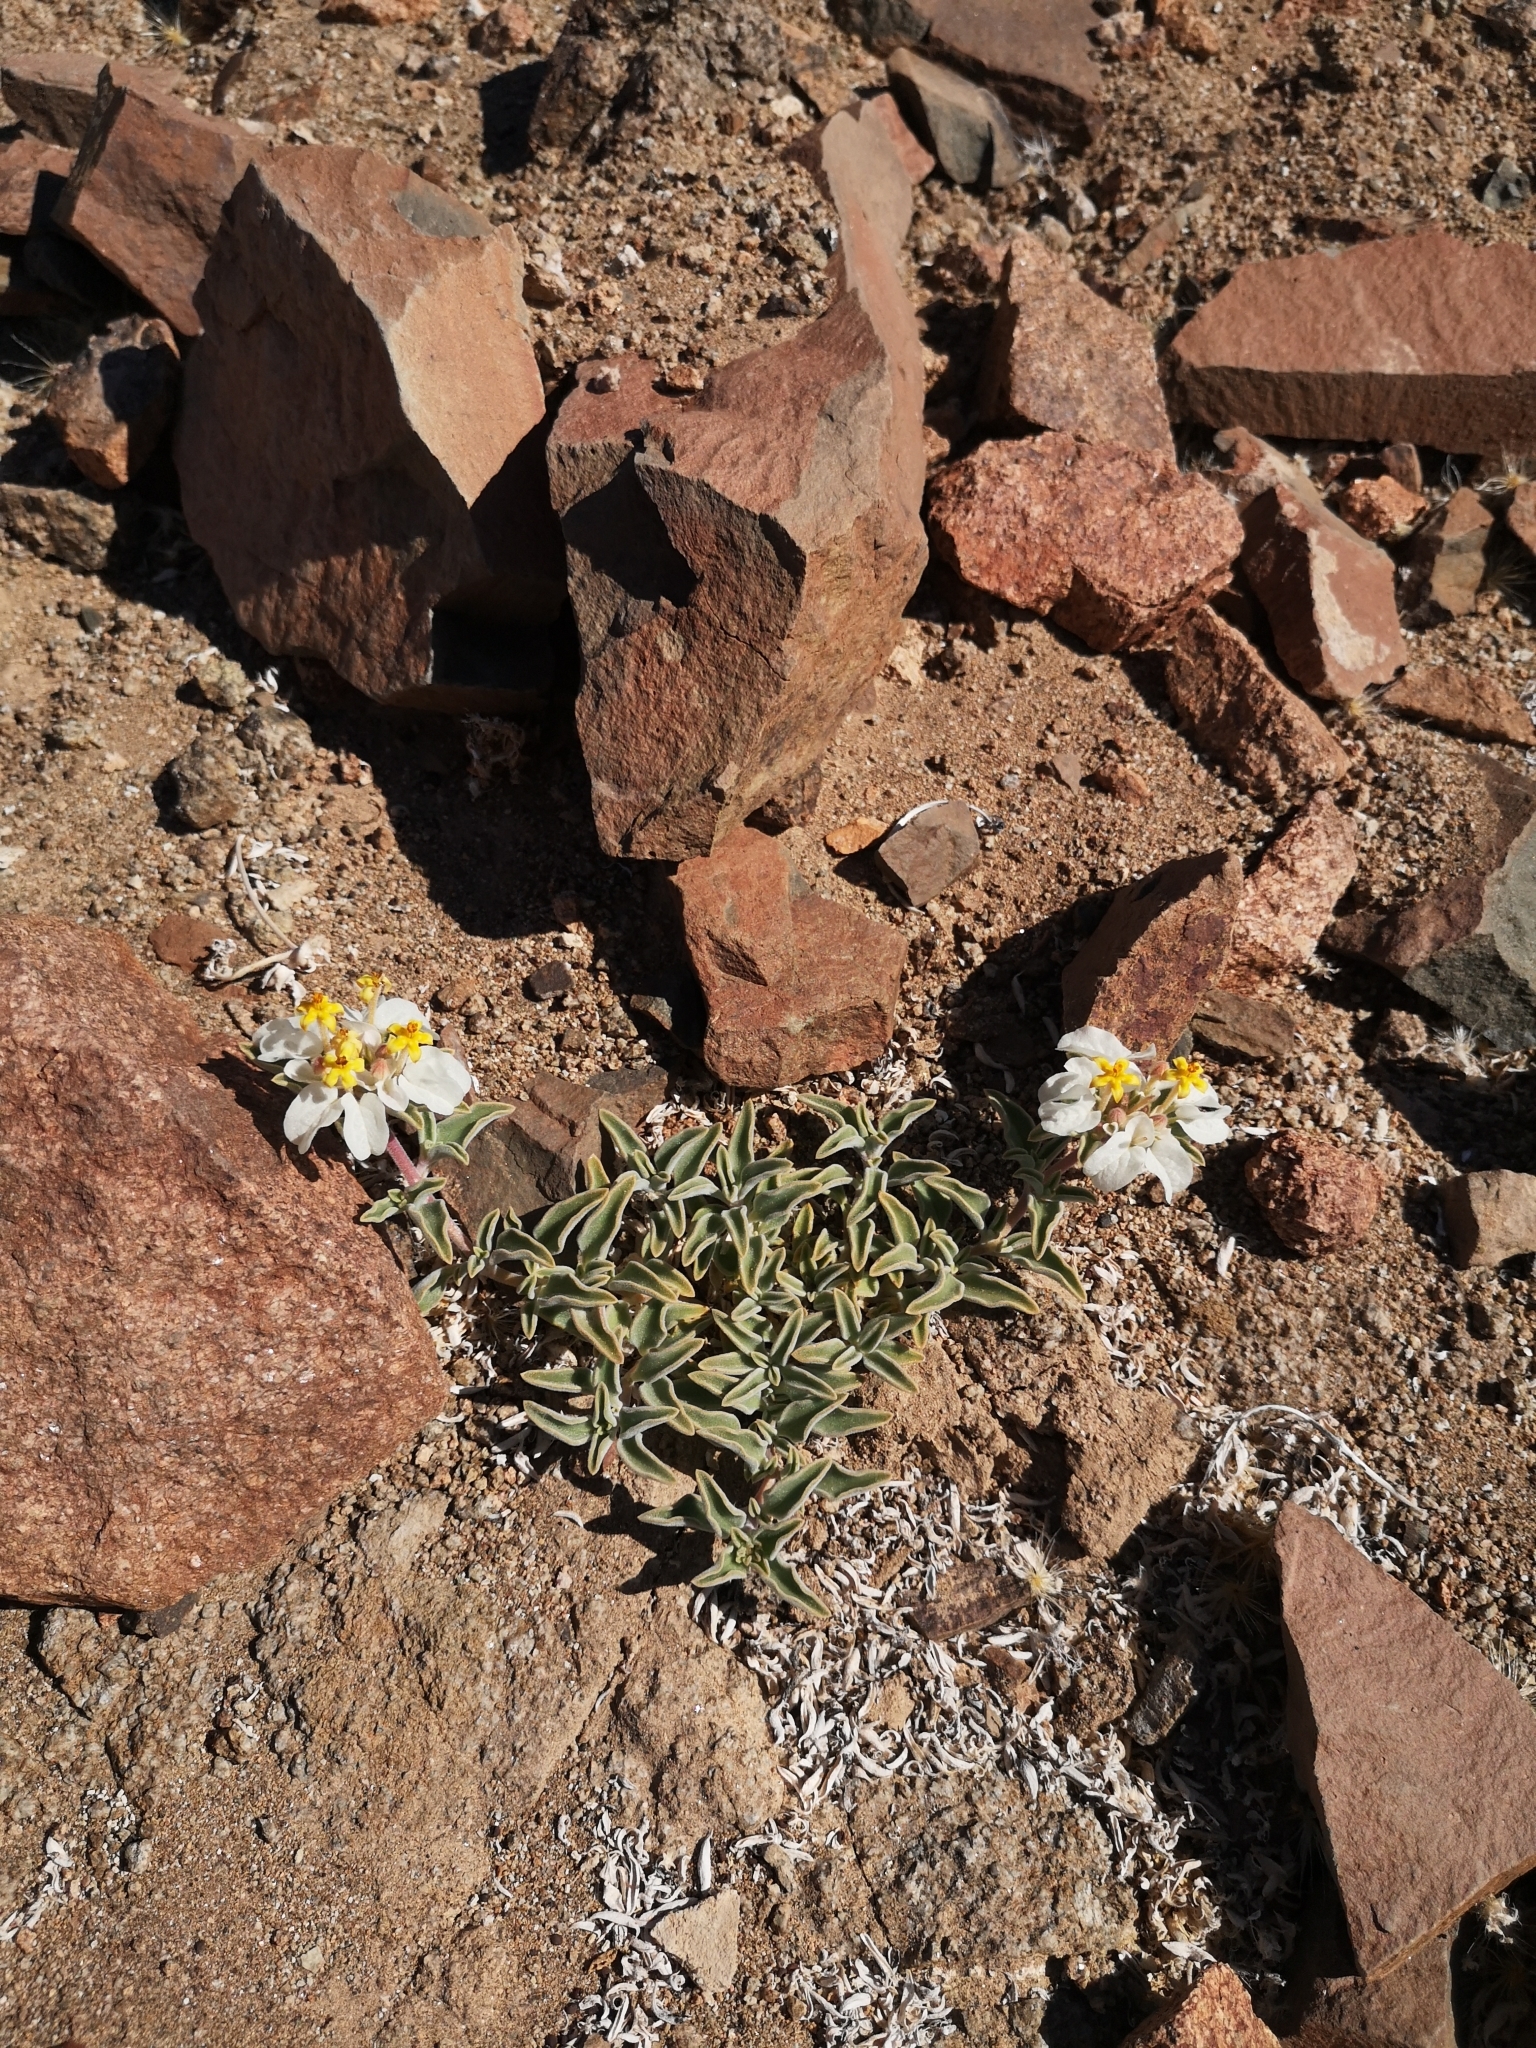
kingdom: Plantae
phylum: Tracheophyta
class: Magnoliopsida
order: Gentianales
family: Rubiaceae
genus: Cruckshanksia
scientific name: Cruckshanksia hymenodon
